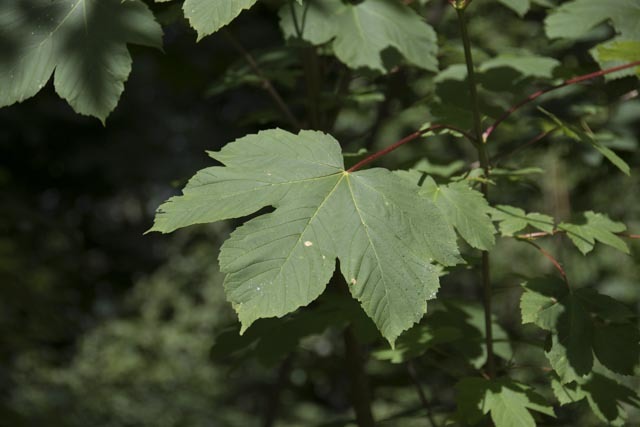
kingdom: Plantae
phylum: Tracheophyta
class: Magnoliopsida
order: Sapindales
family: Sapindaceae
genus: Acer
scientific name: Acer pseudoplatanus
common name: Sycamore
